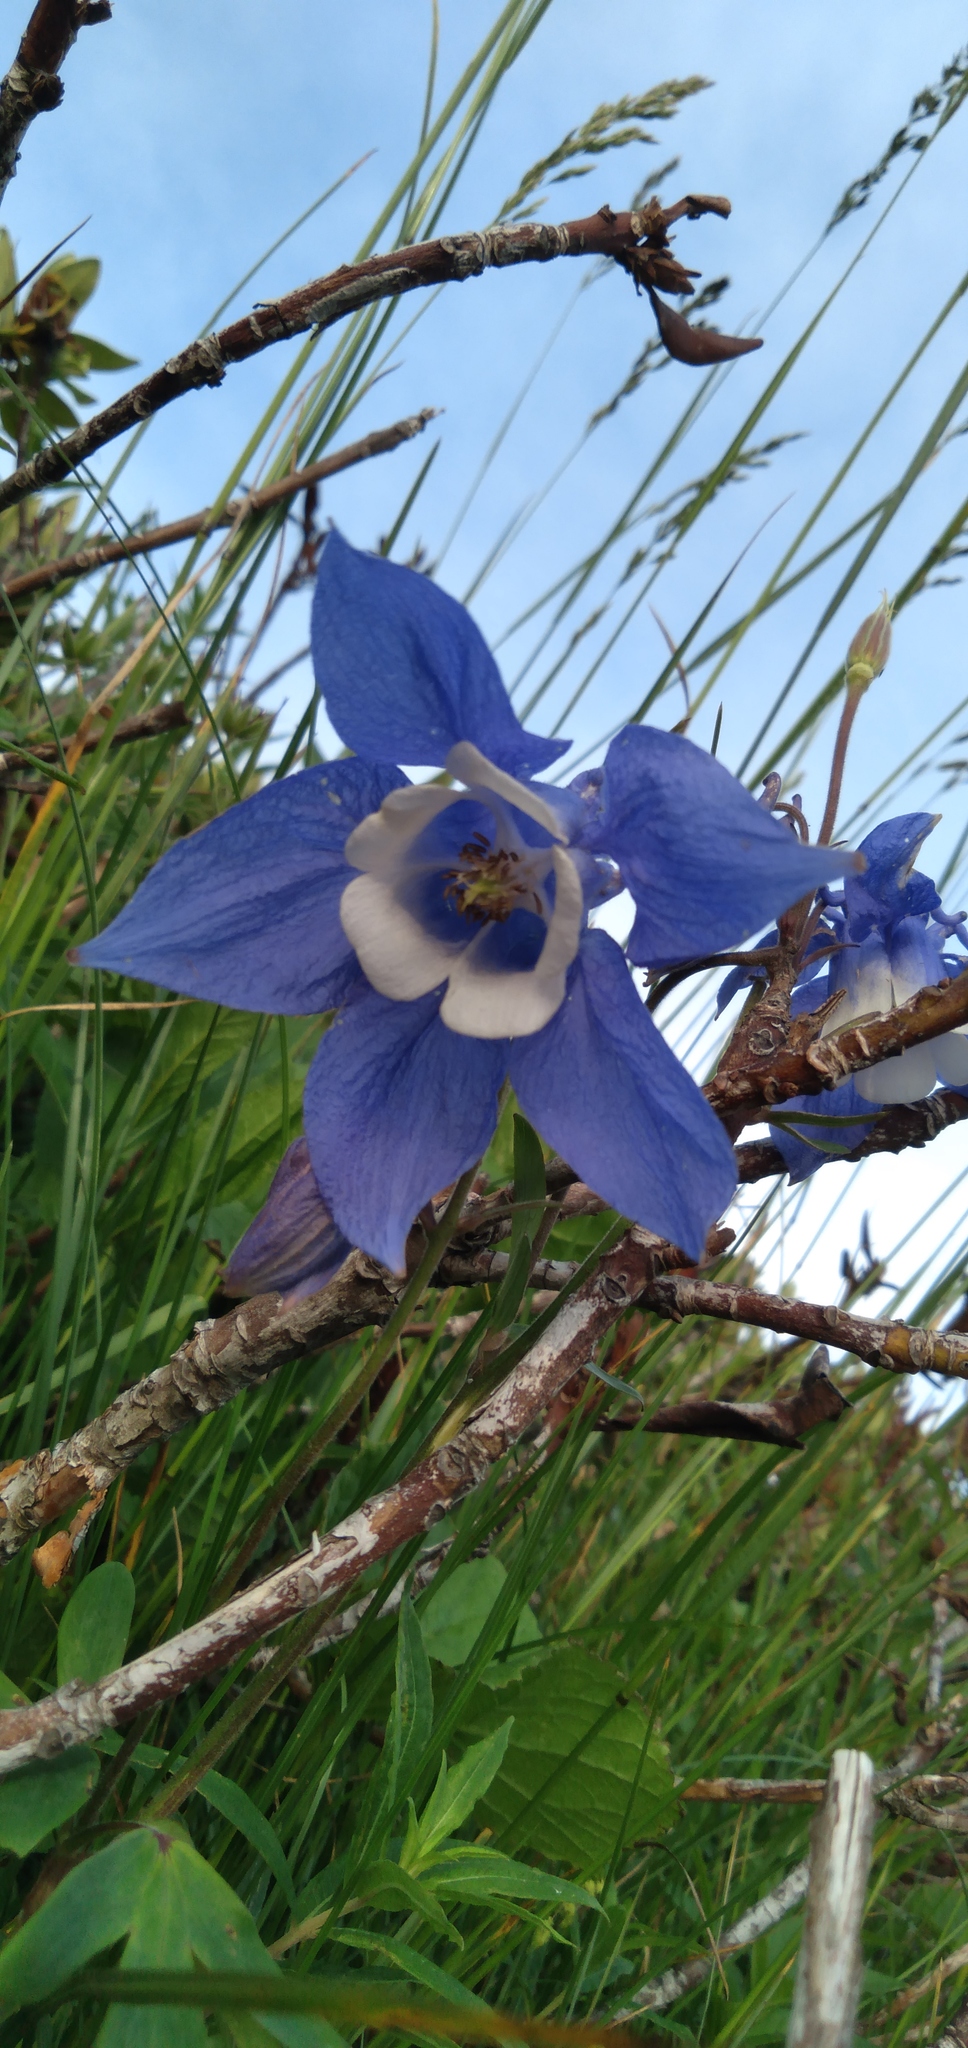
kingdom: Plantae
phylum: Tracheophyta
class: Magnoliopsida
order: Ranunculales
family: Ranunculaceae
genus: Aquilegia
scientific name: Aquilegia olympica
